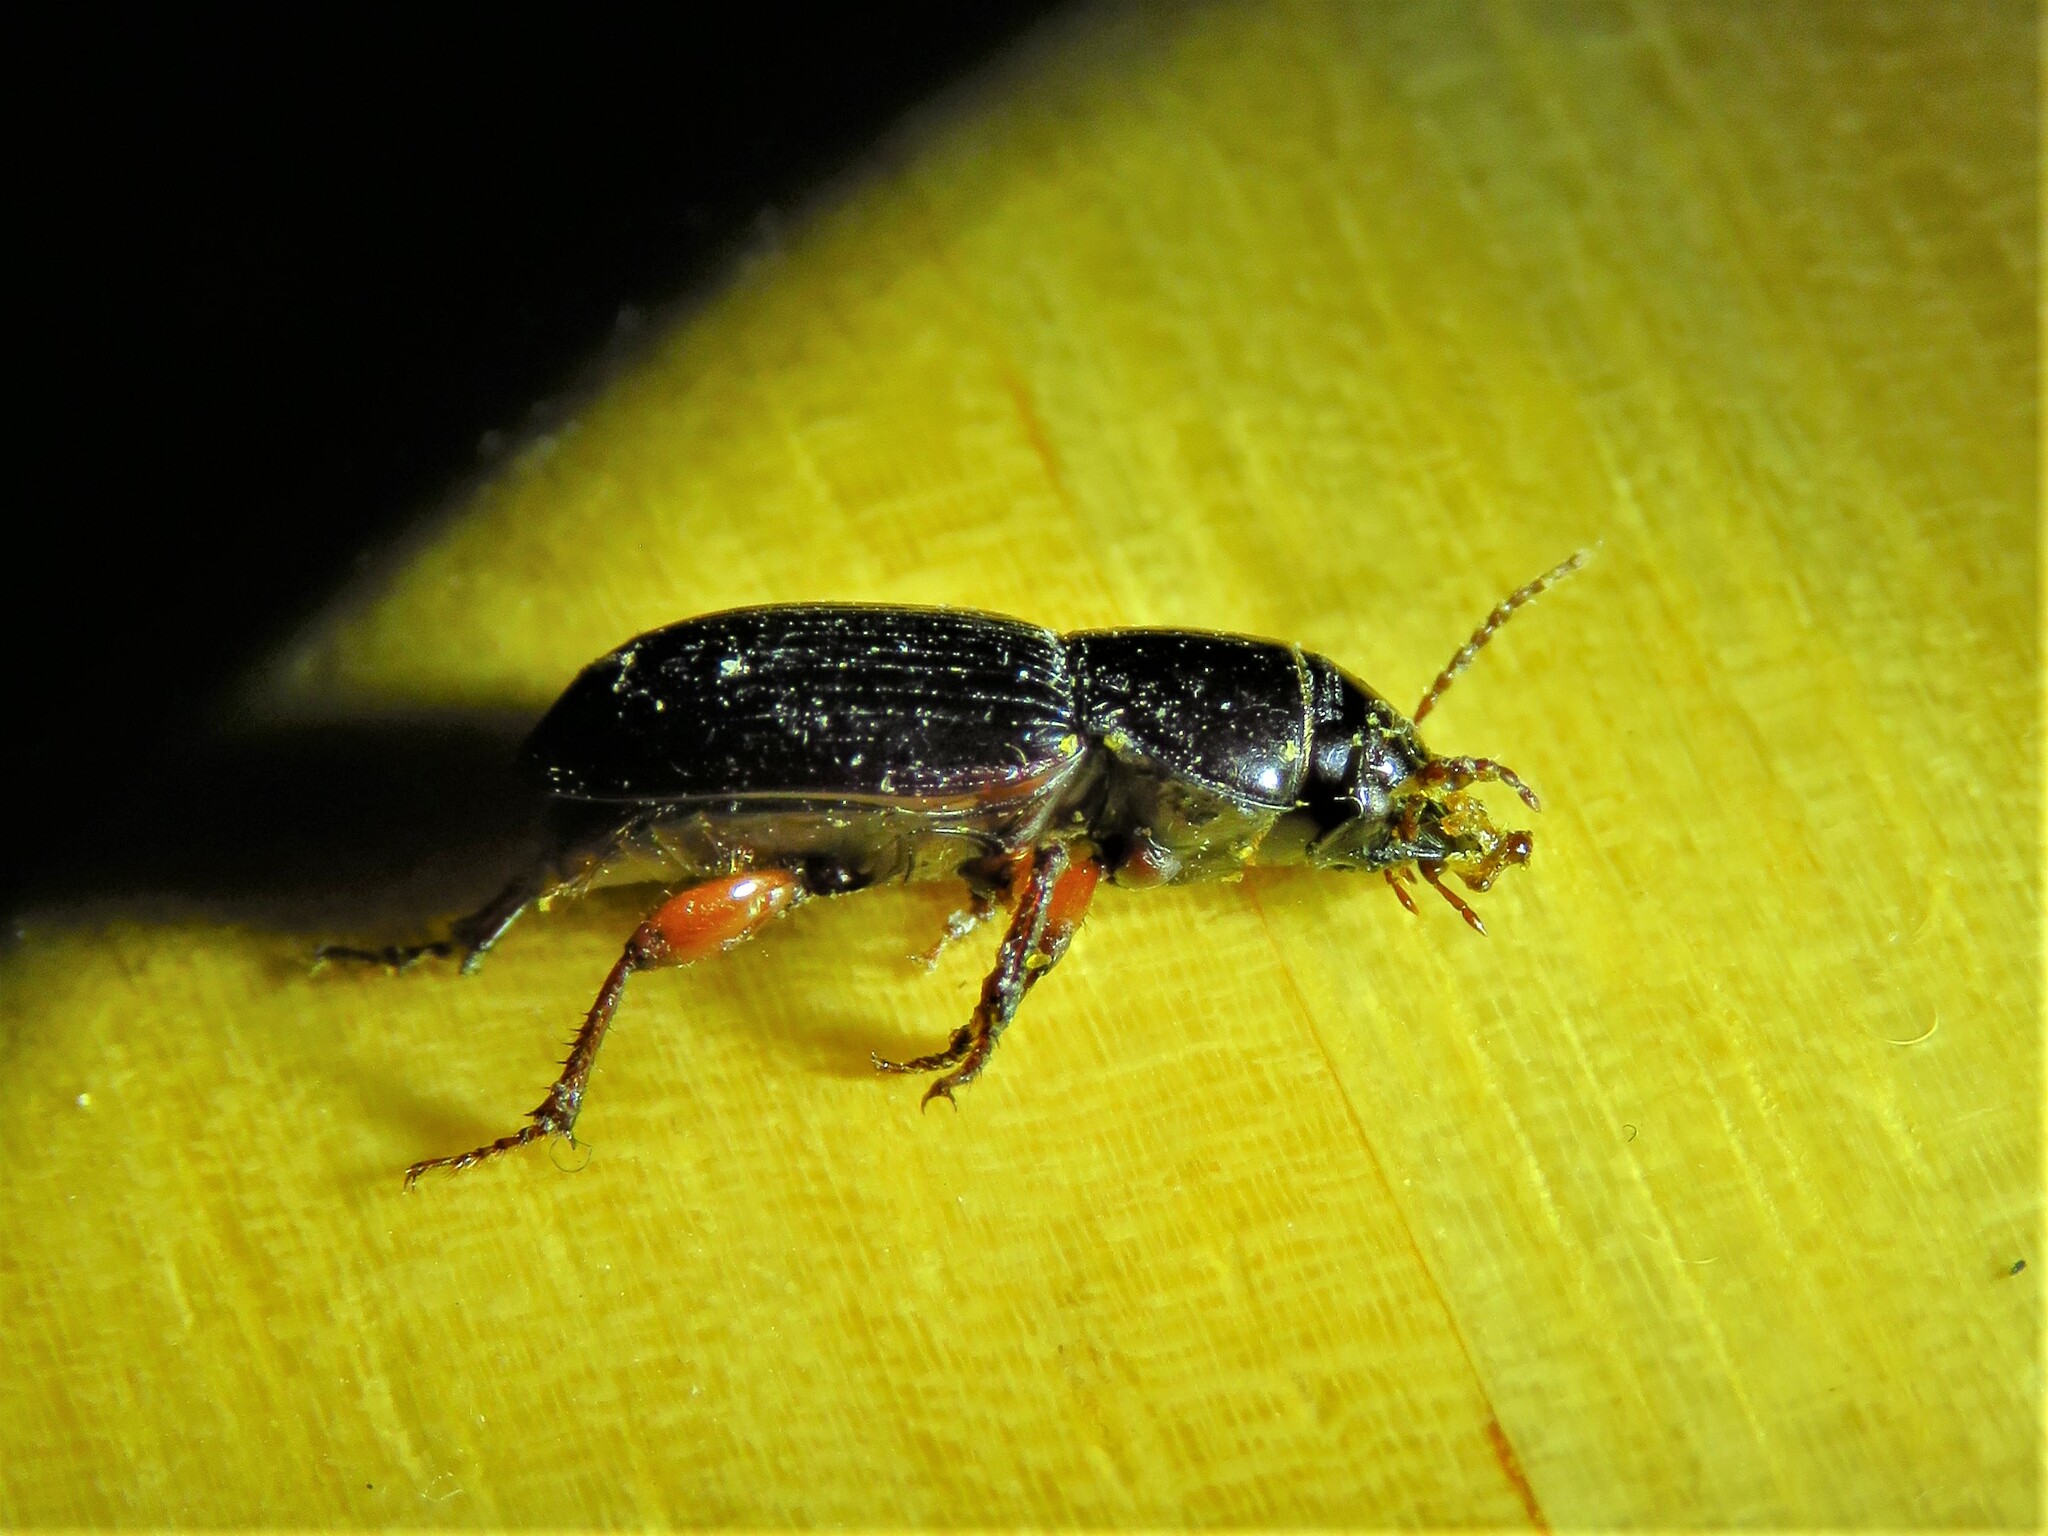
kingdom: Animalia
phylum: Arthropoda
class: Insecta
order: Coleoptera
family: Carabidae
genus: Cratacanthus
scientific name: Cratacanthus dubius
